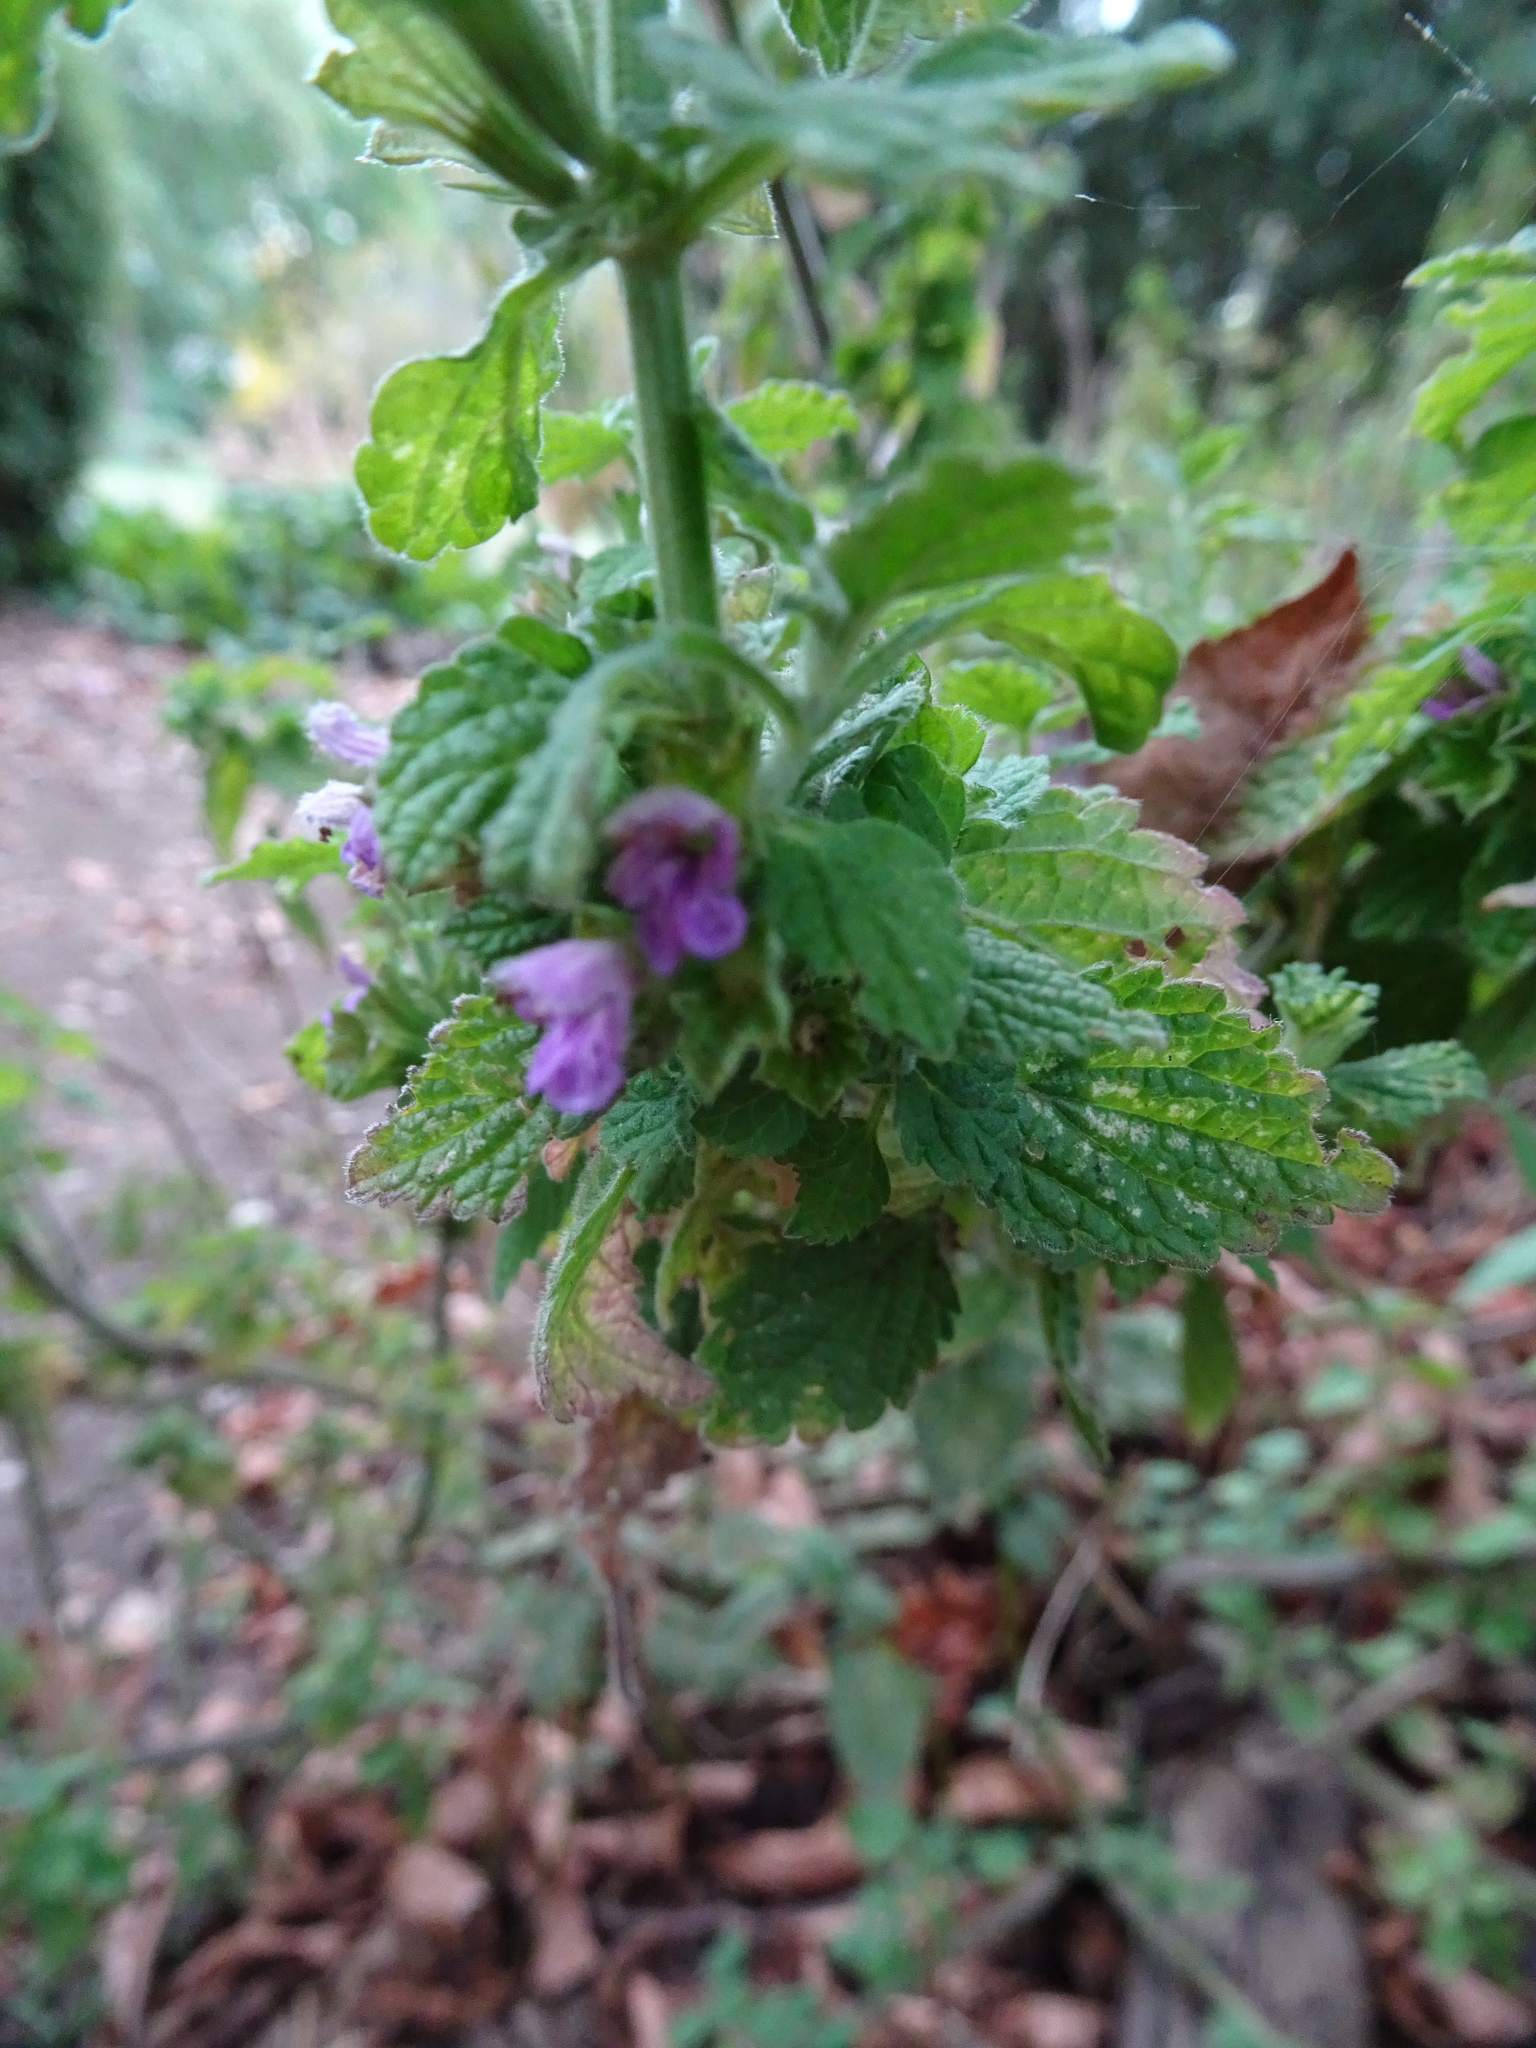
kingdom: Plantae
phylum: Tracheophyta
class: Magnoliopsida
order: Lamiales
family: Lamiaceae
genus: Ballota
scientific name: Ballota nigra
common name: Black horehound
